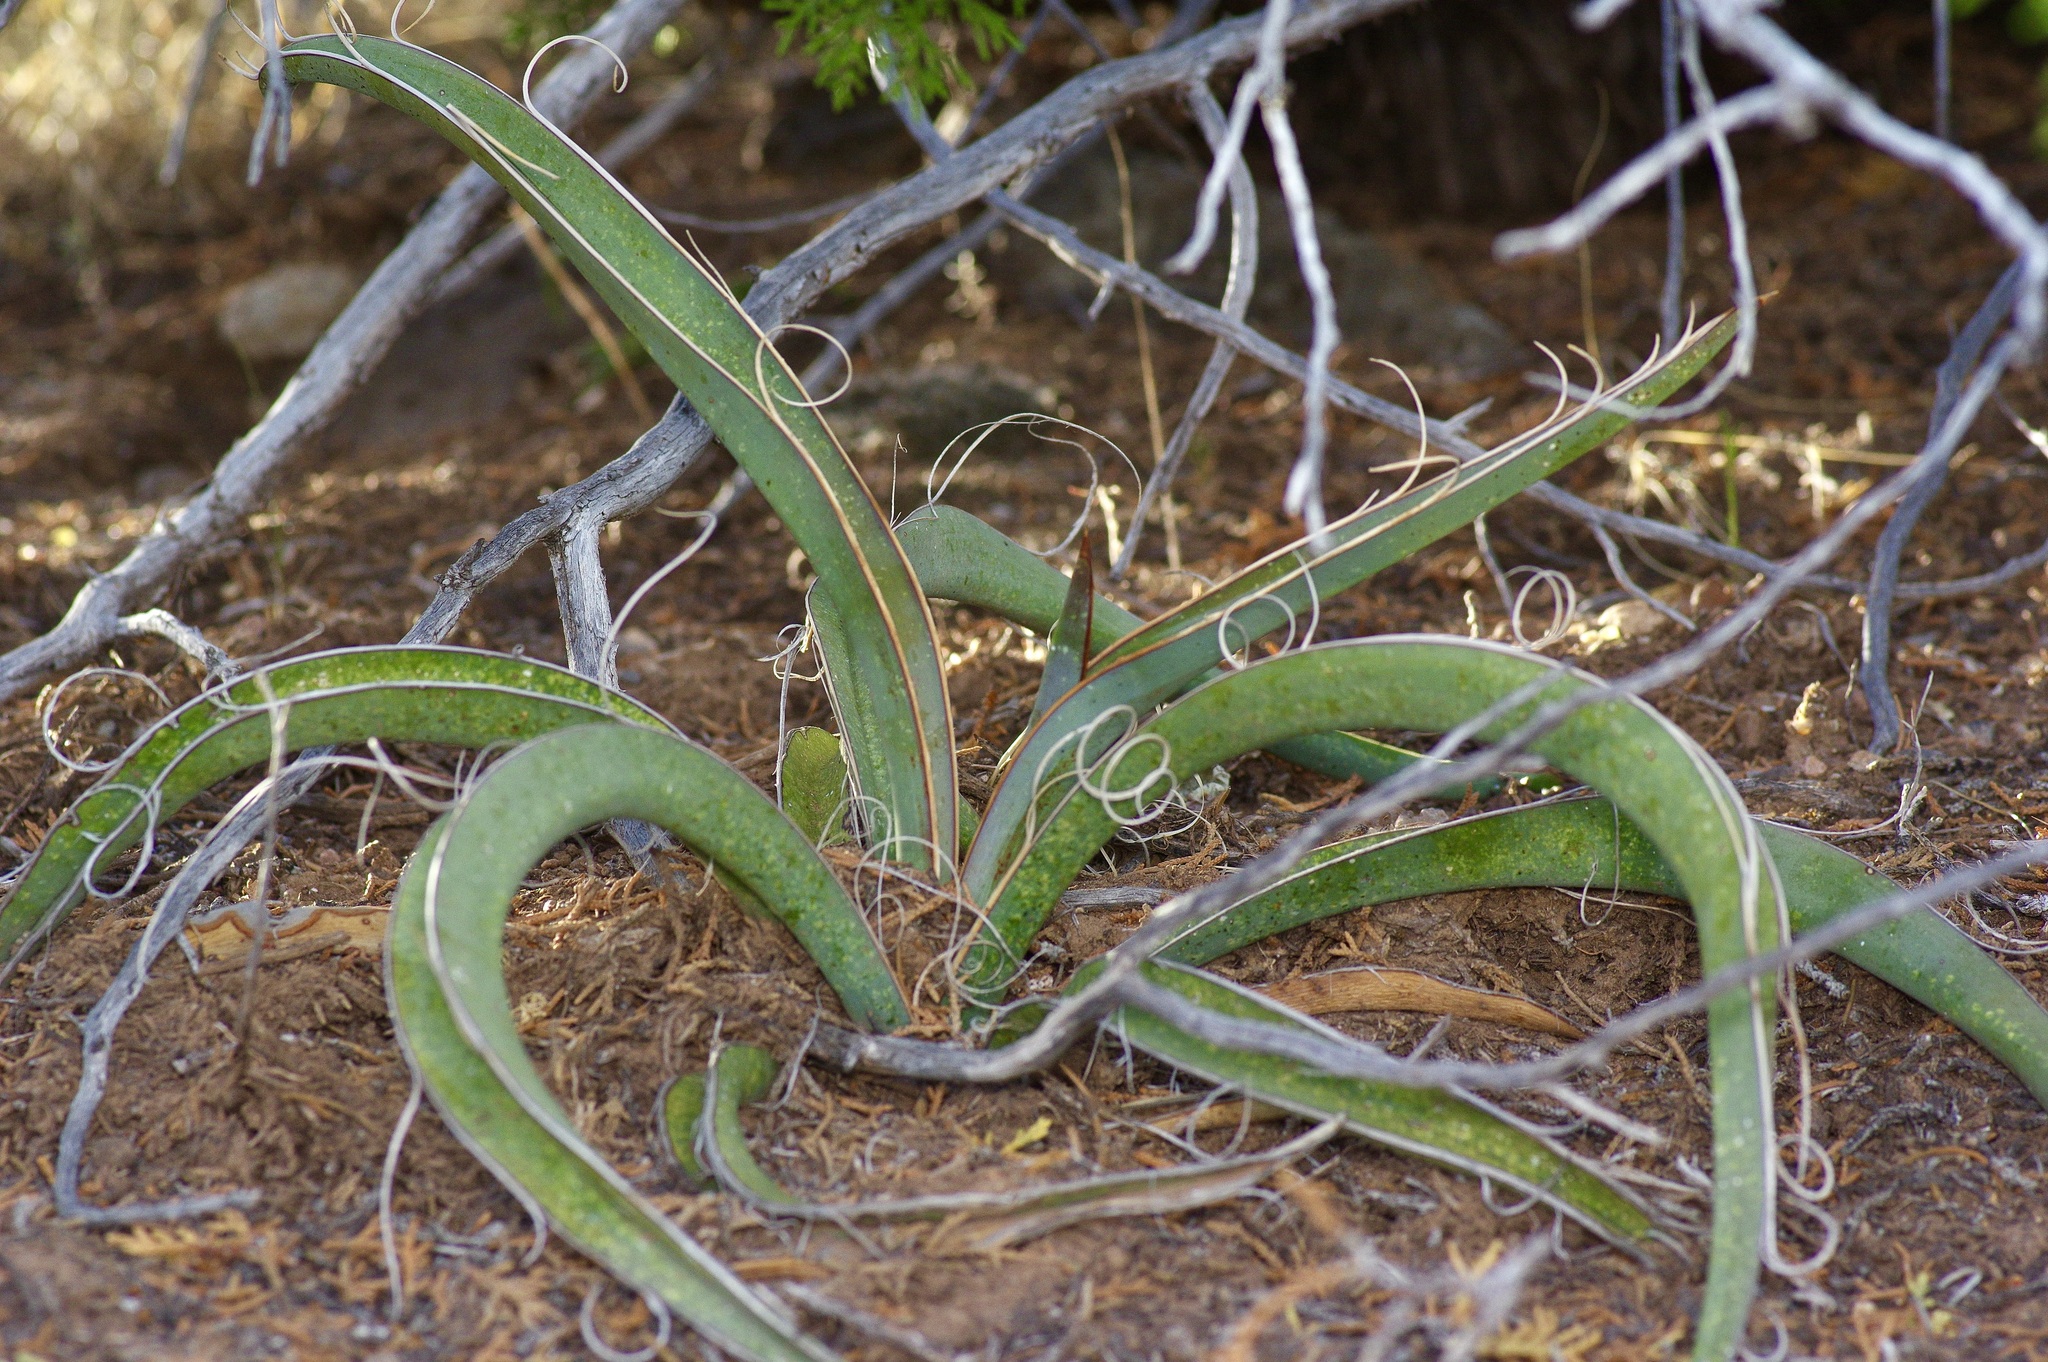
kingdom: Plantae
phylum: Tracheophyta
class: Liliopsida
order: Asparagales
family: Asparagaceae
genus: Yucca
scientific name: Yucca baccata
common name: Banana yucca
